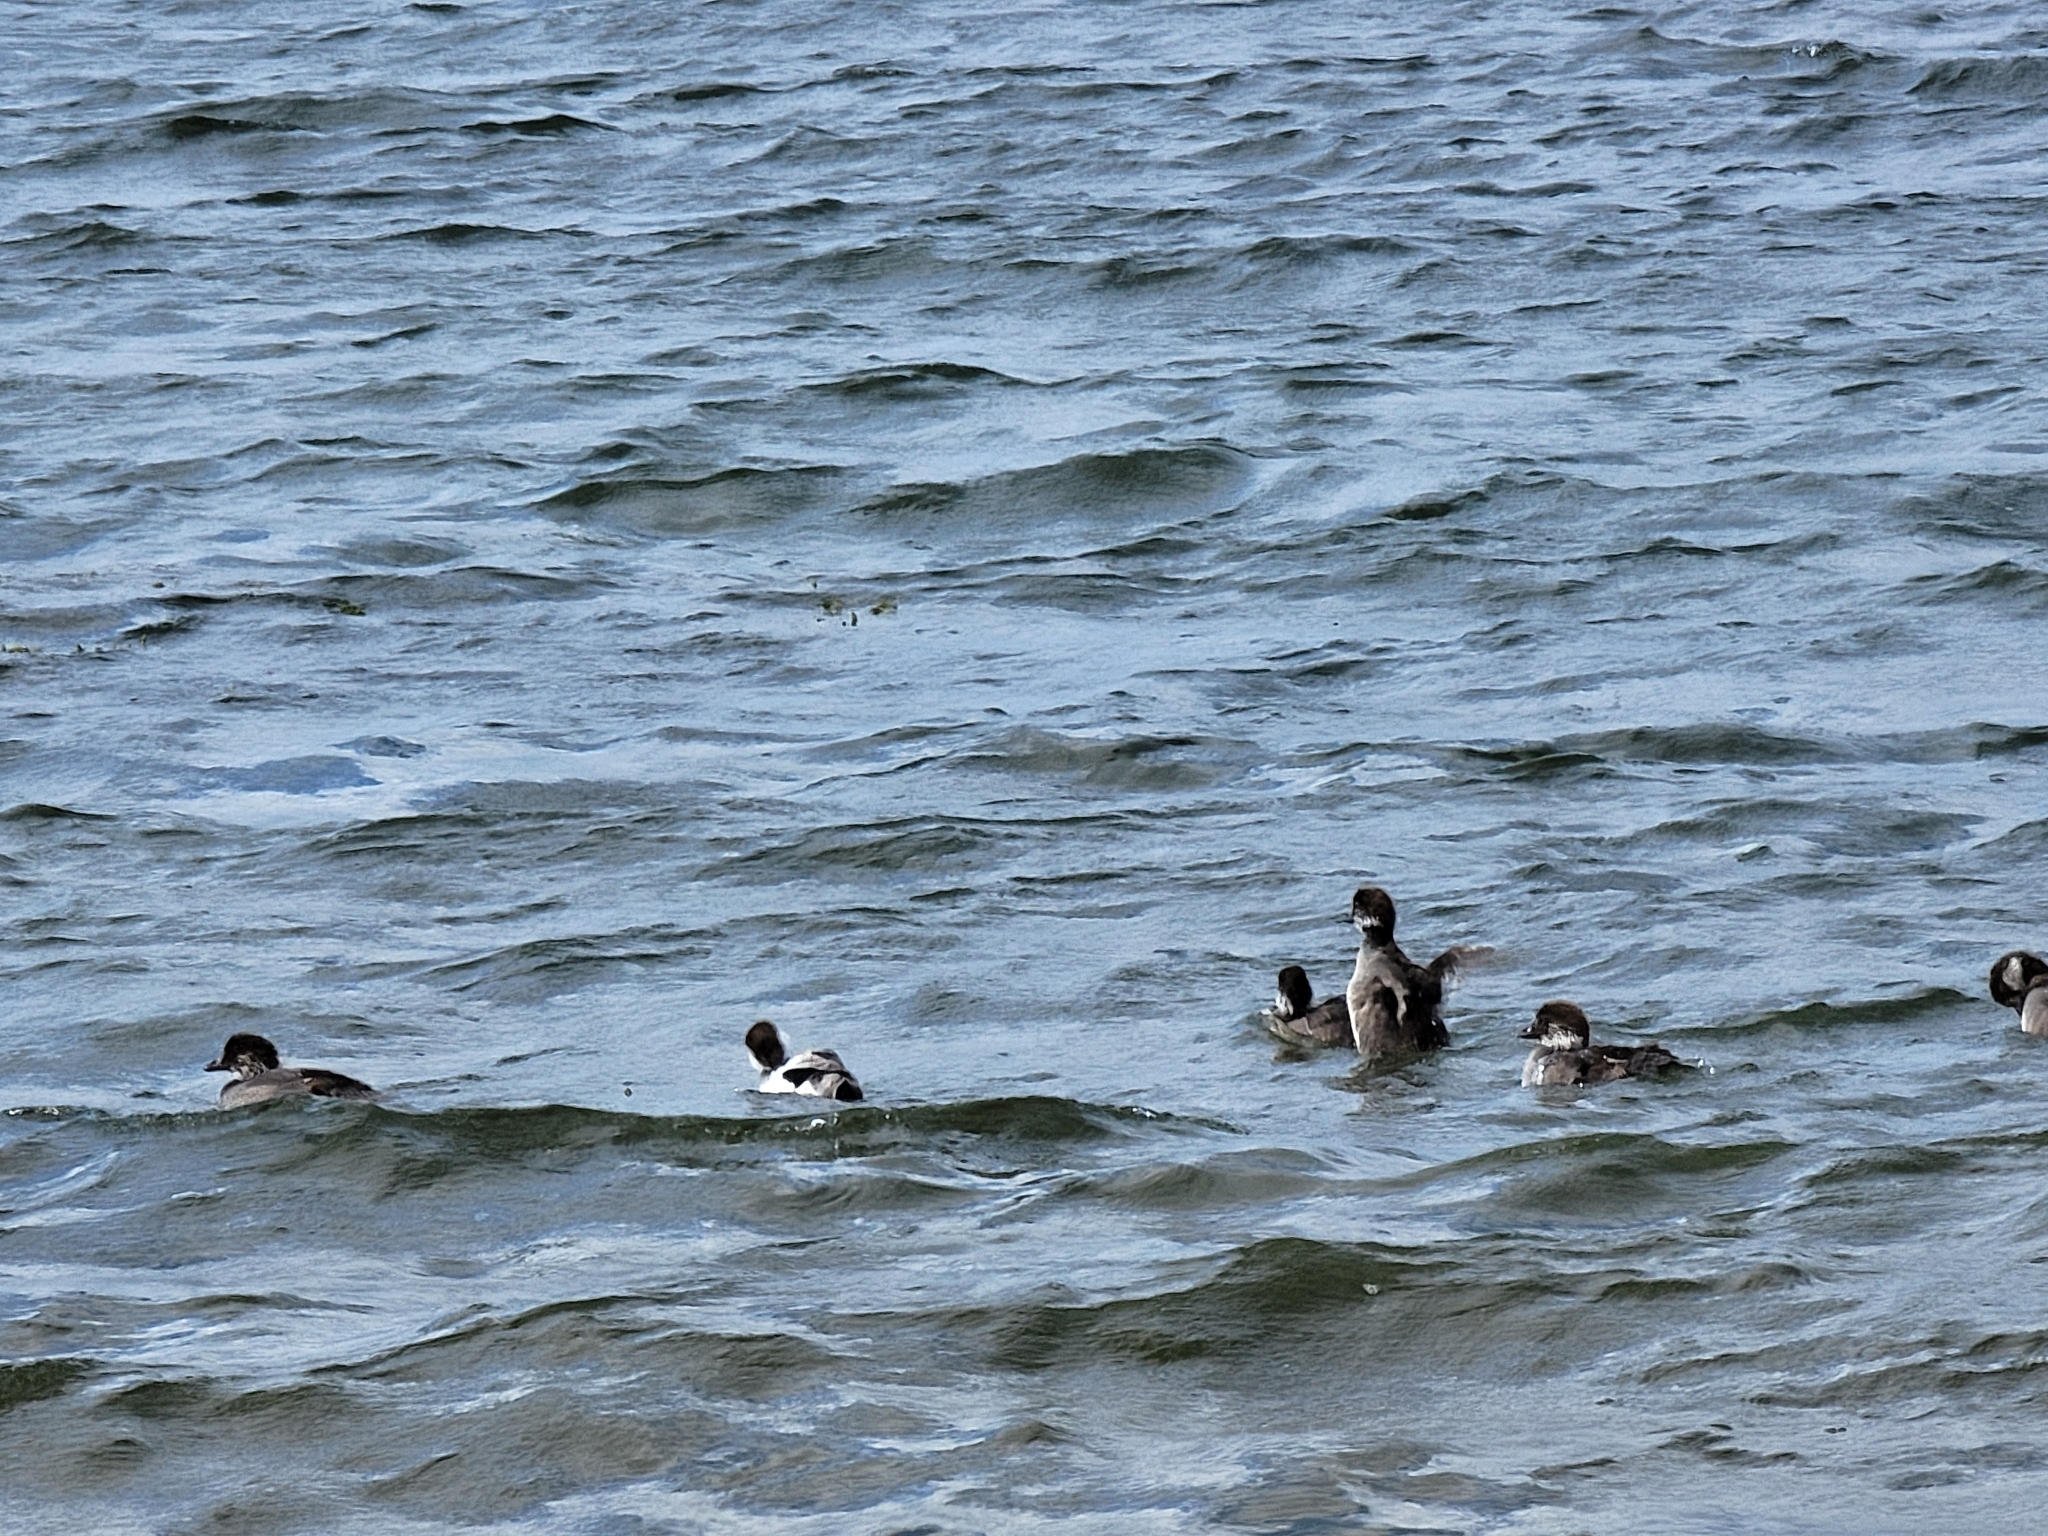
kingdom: Animalia
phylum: Chordata
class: Aves
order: Anseriformes
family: Anatidae
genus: Bucephala
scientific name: Bucephala clangula
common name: Common goldeneye
